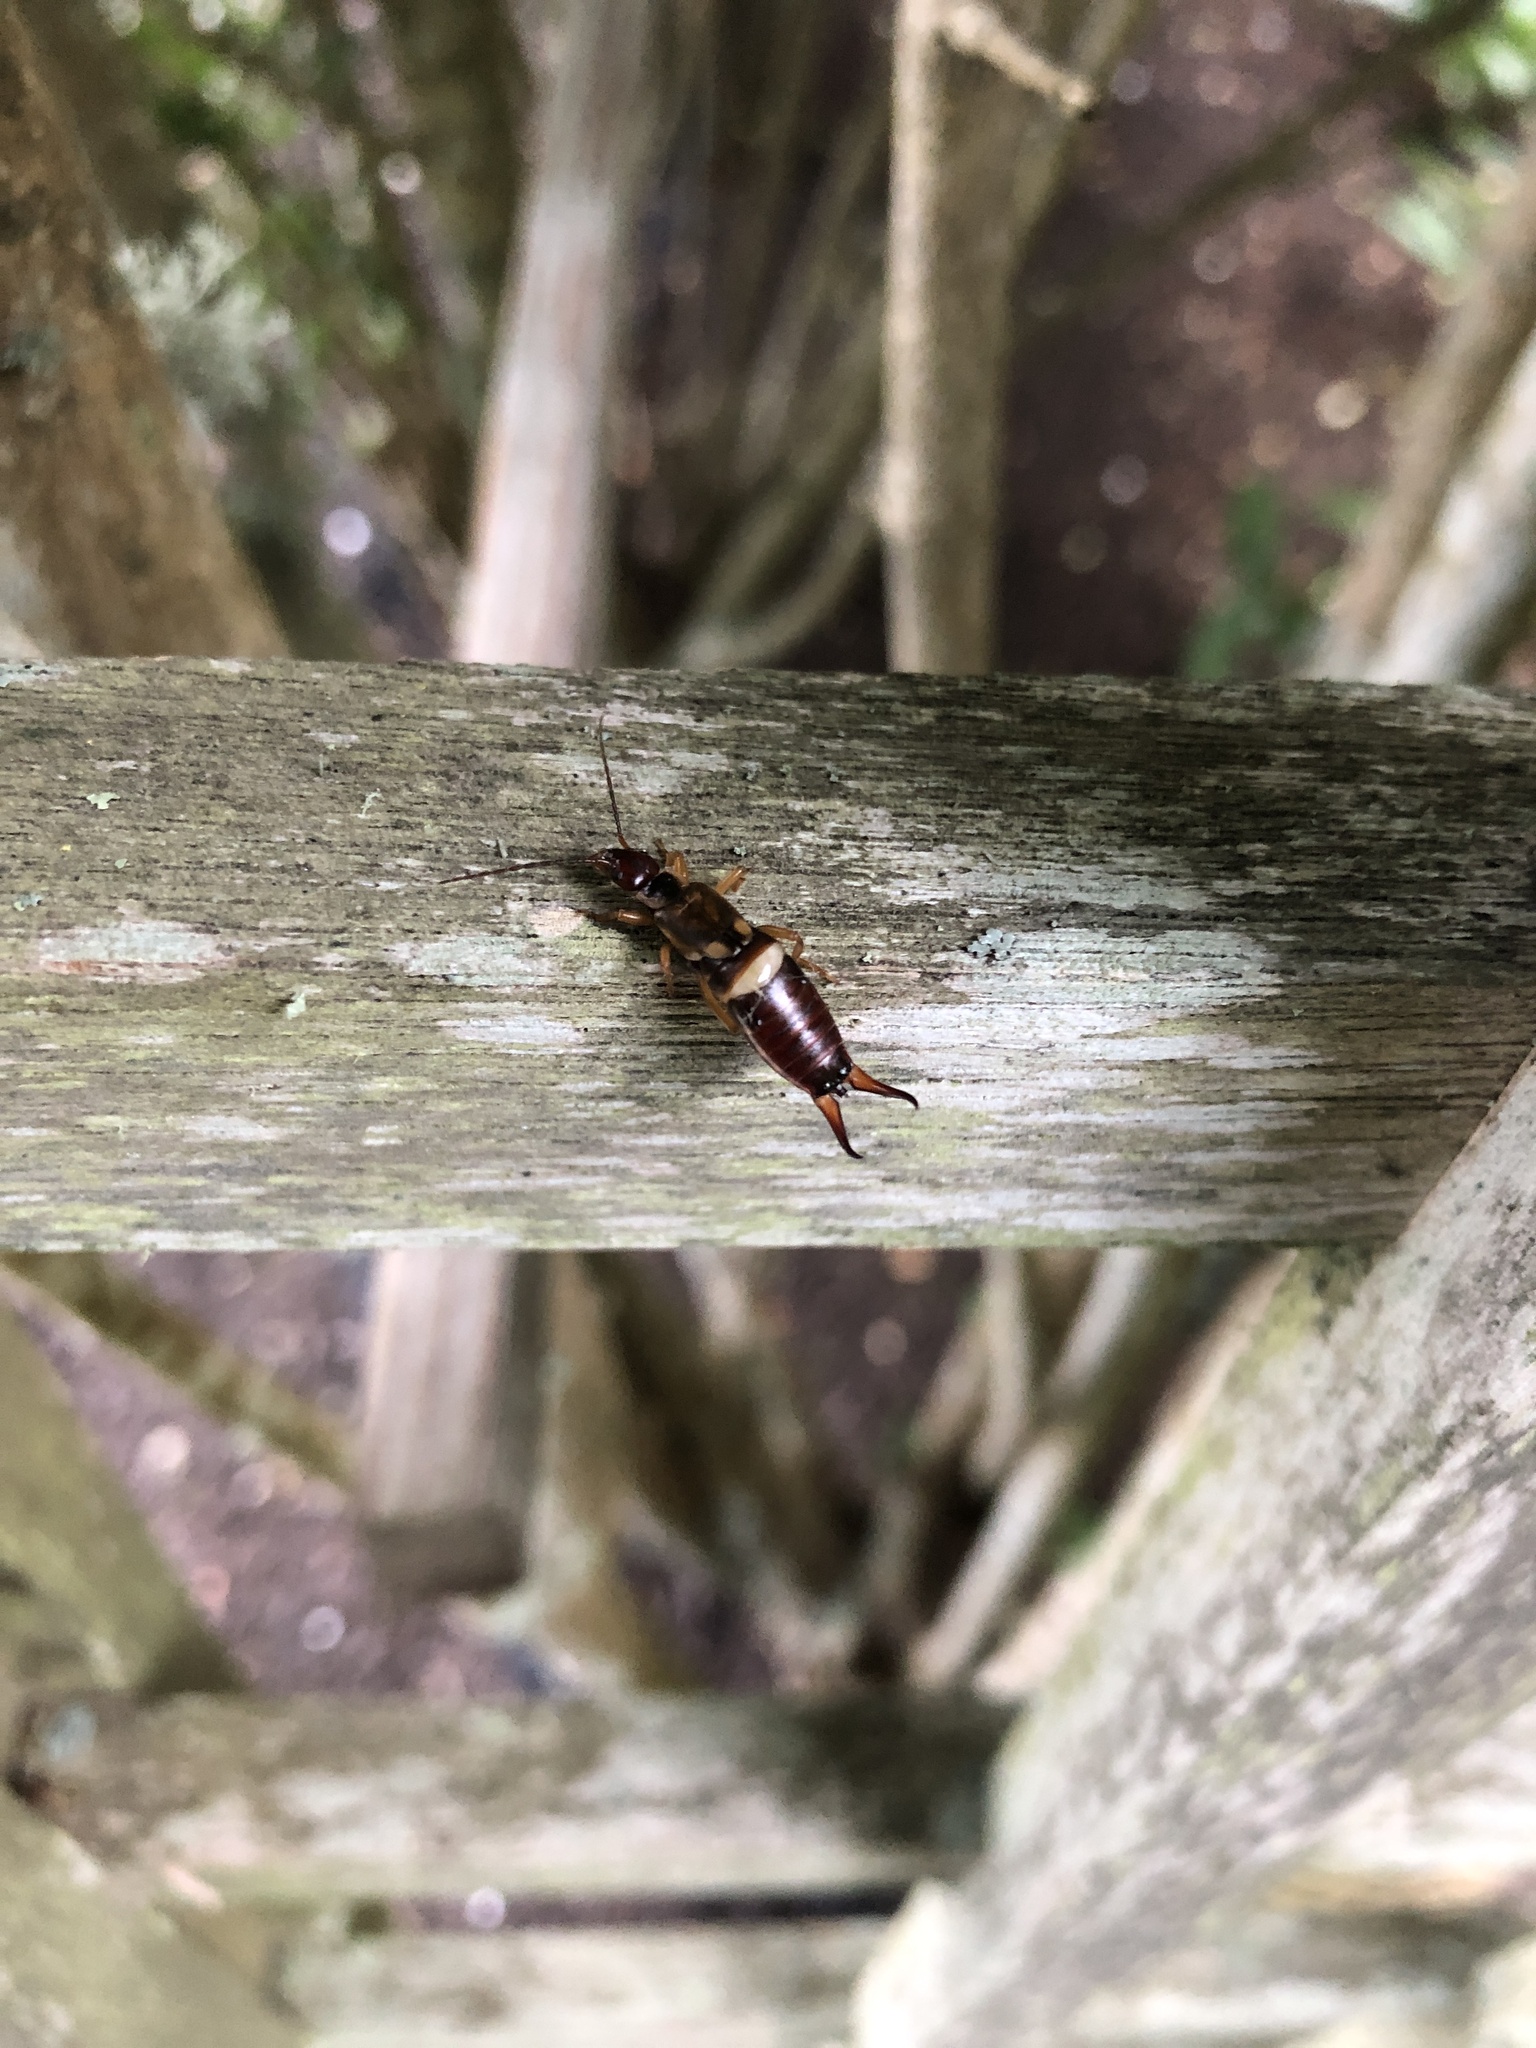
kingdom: Animalia
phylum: Arthropoda
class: Insecta
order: Dermaptera
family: Forficulidae
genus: Forficula
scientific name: Forficula
